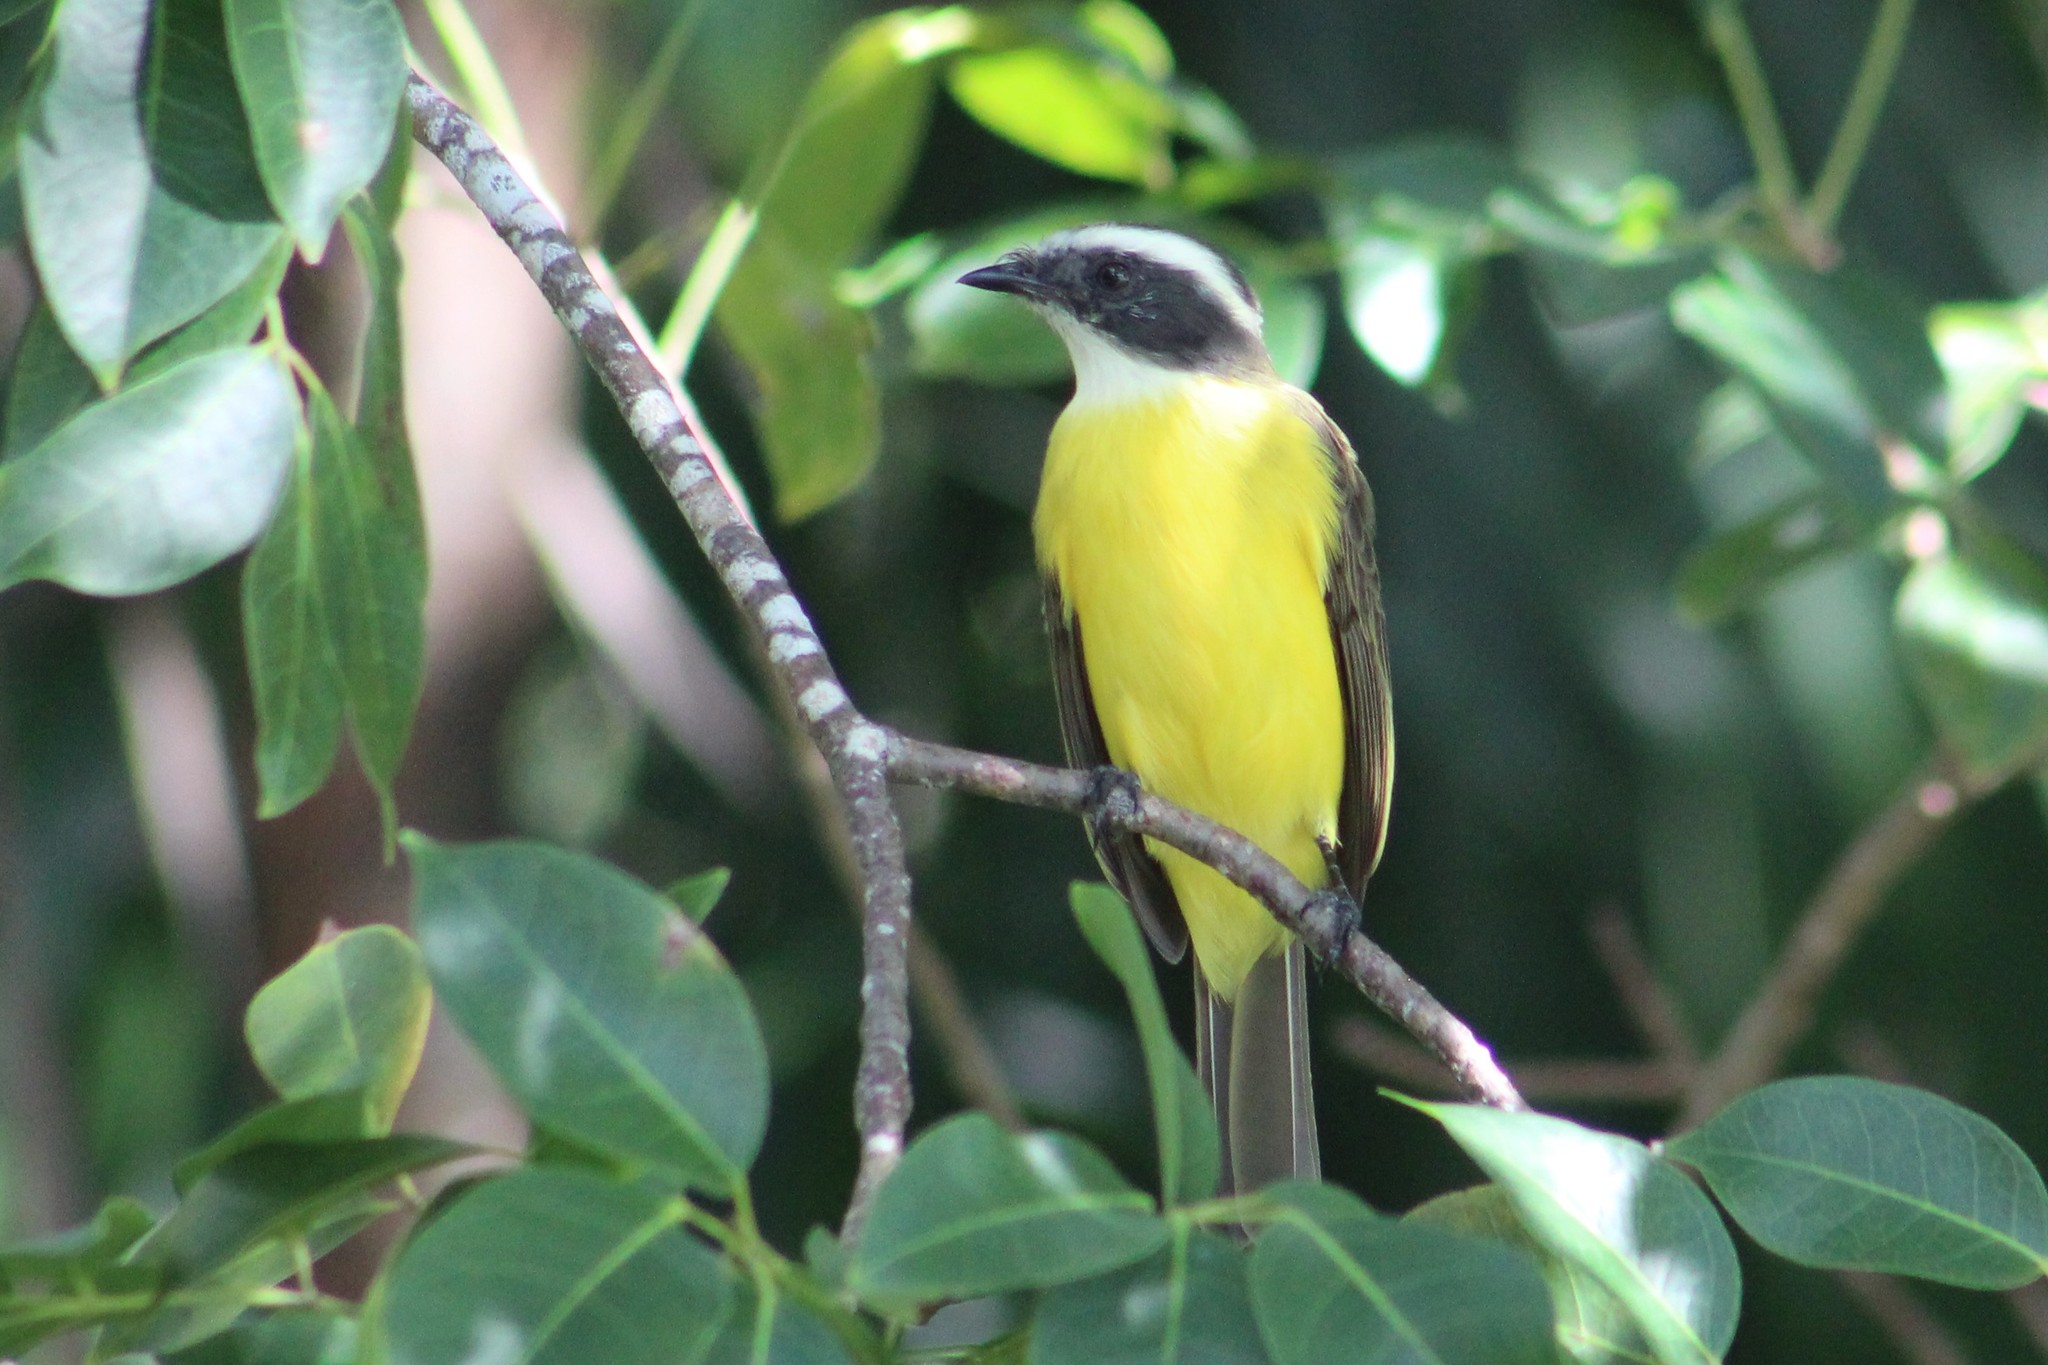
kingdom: Animalia
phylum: Chordata
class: Aves
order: Passeriformes
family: Tyrannidae
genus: Myiozetetes
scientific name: Myiozetetes similis
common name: Social flycatcher
